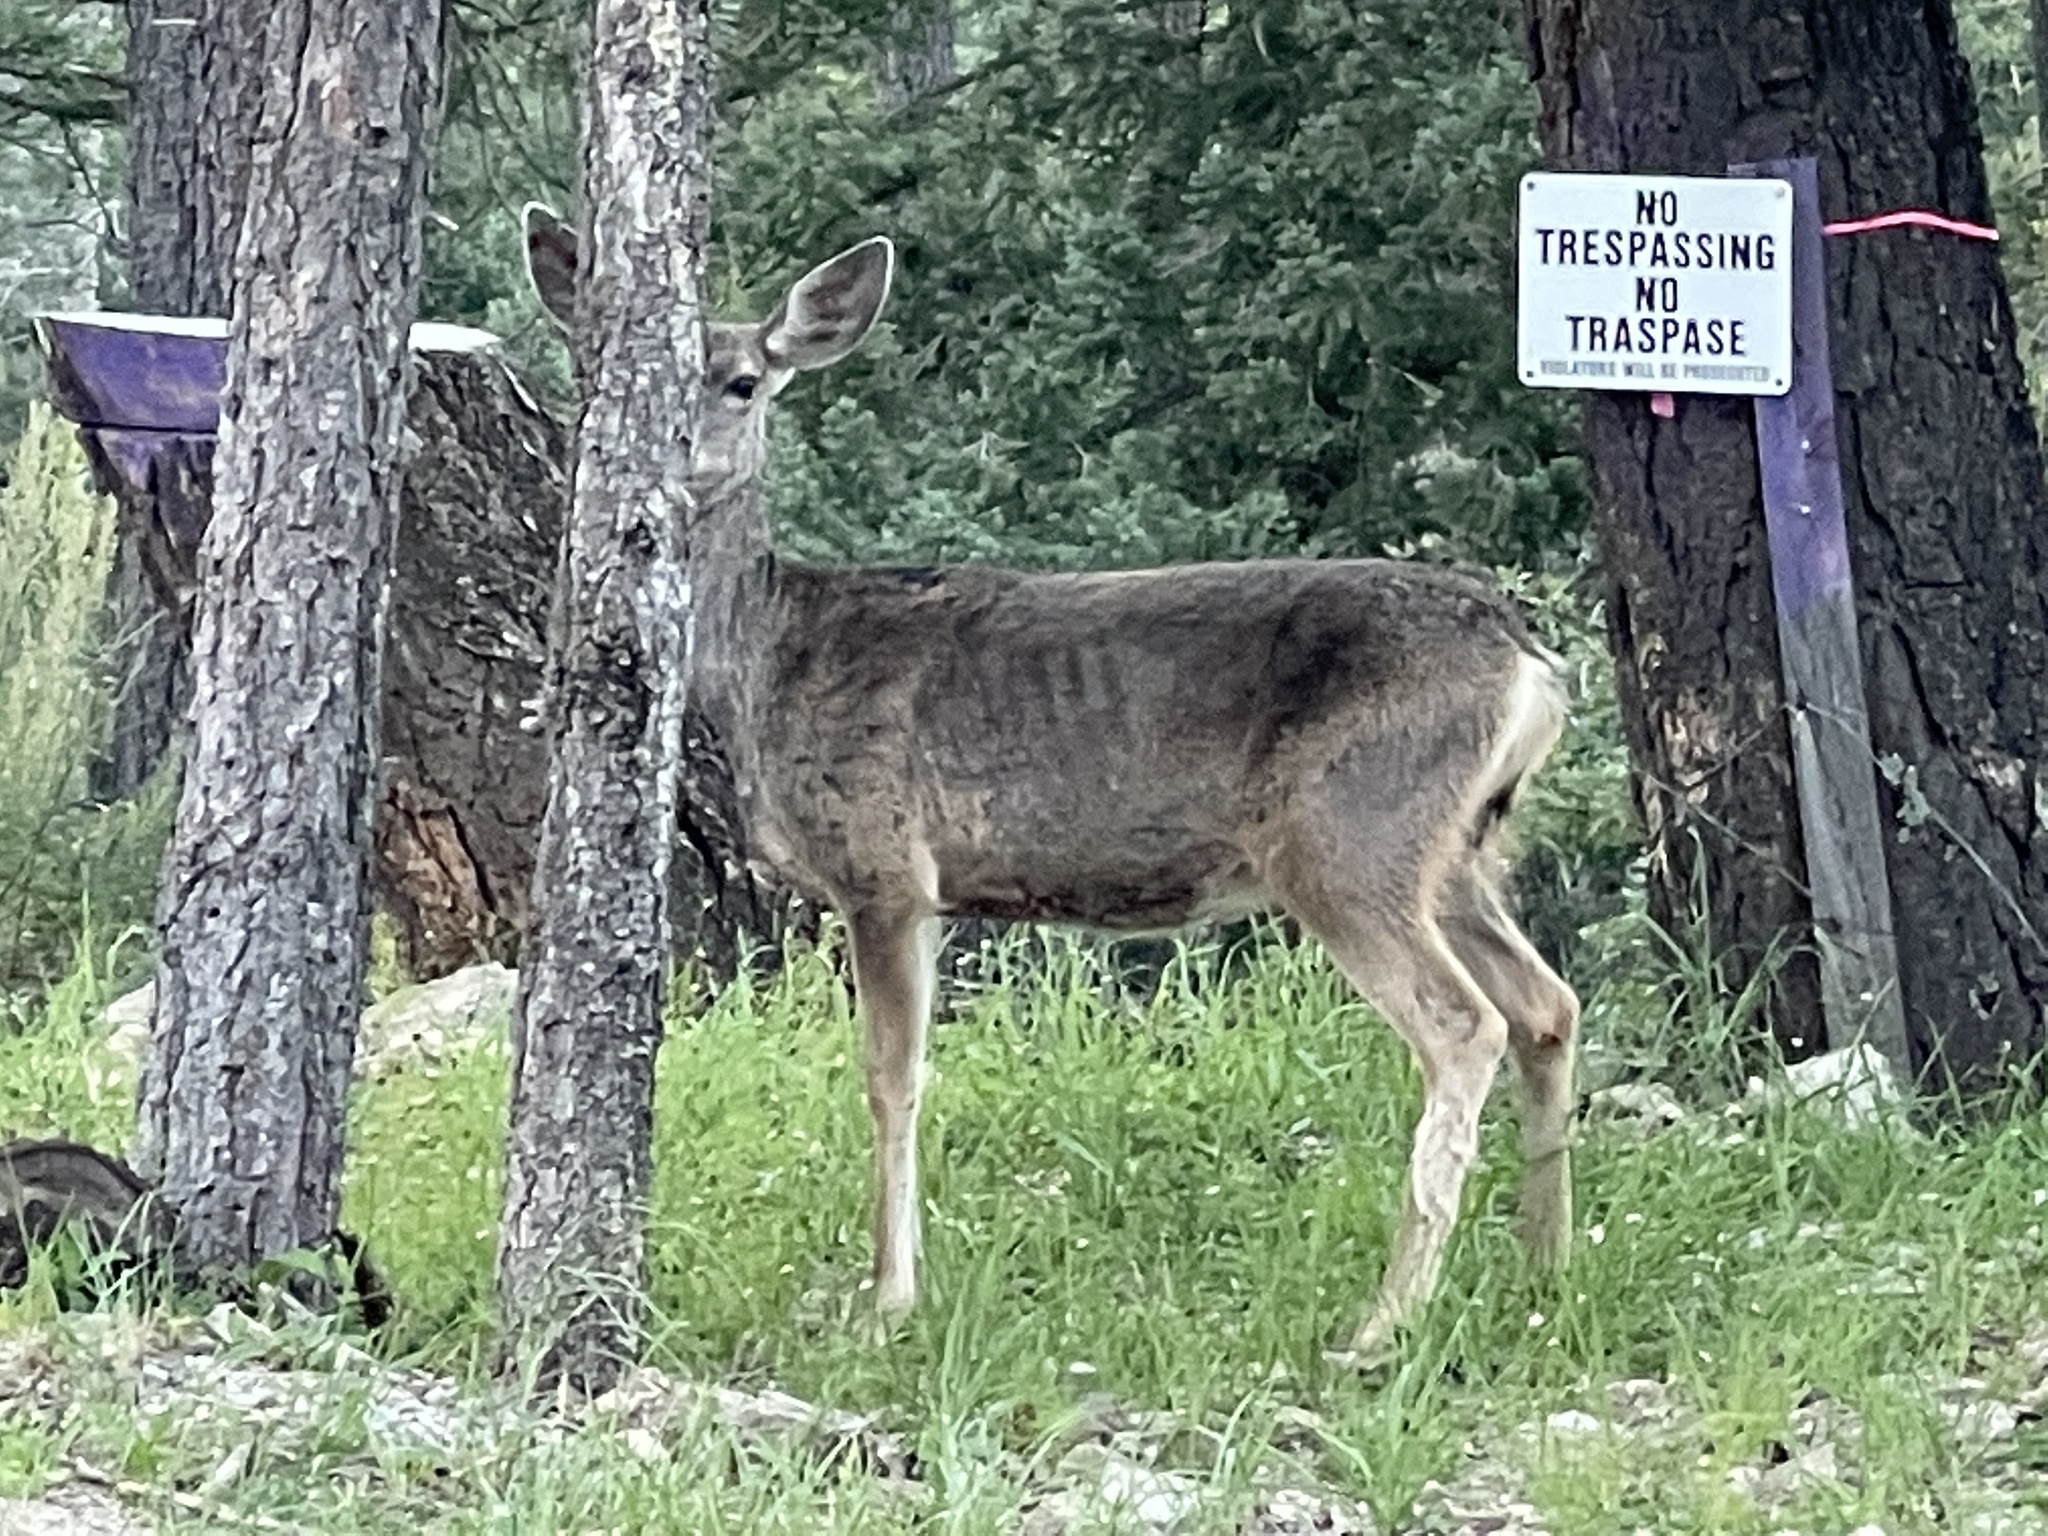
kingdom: Animalia
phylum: Chordata
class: Mammalia
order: Artiodactyla
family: Cervidae
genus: Odocoileus
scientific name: Odocoileus hemionus
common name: Mule deer
